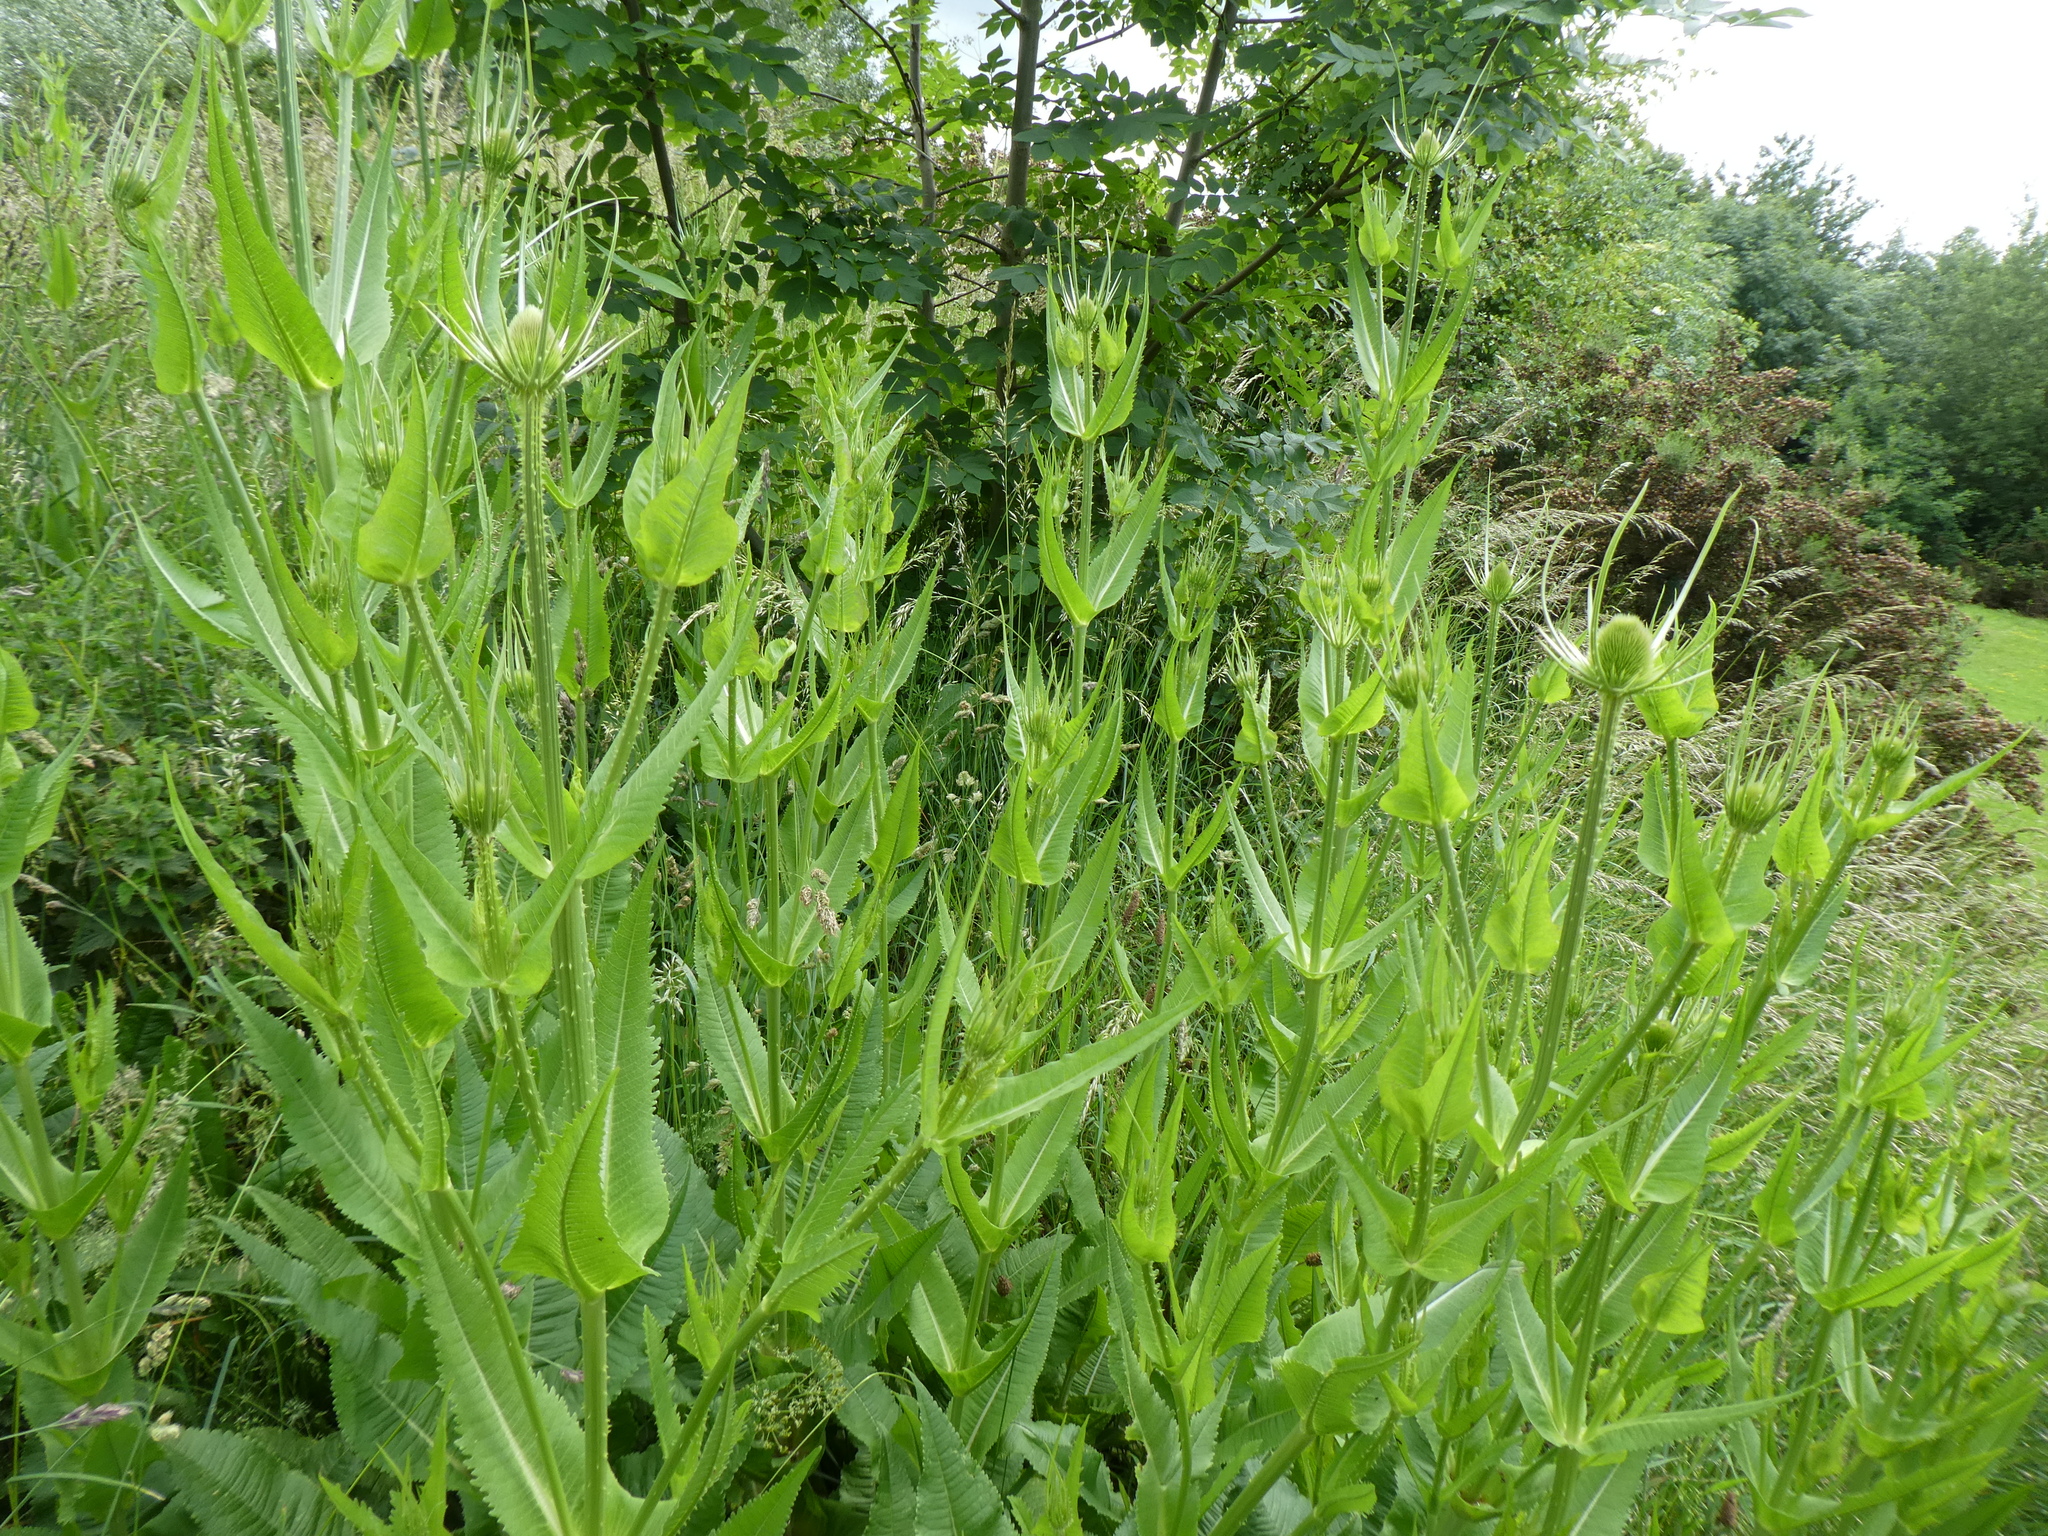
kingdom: Plantae
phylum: Tracheophyta
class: Magnoliopsida
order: Dipsacales
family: Caprifoliaceae
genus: Dipsacus
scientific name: Dipsacus fullonum
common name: Teasel
